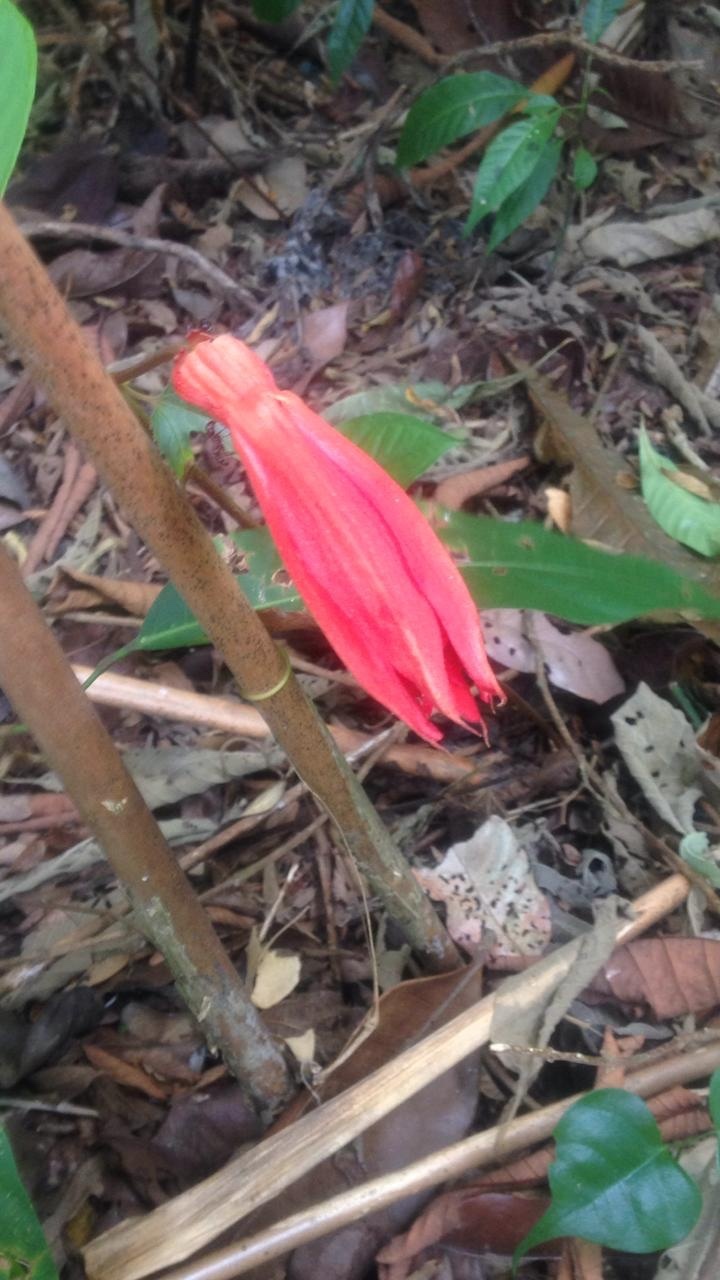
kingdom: Plantae
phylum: Tracheophyta
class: Magnoliopsida
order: Malpighiales
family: Passifloraceae
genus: Passiflora
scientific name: Passiflora vitifolia
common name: Perfumed passionflower
